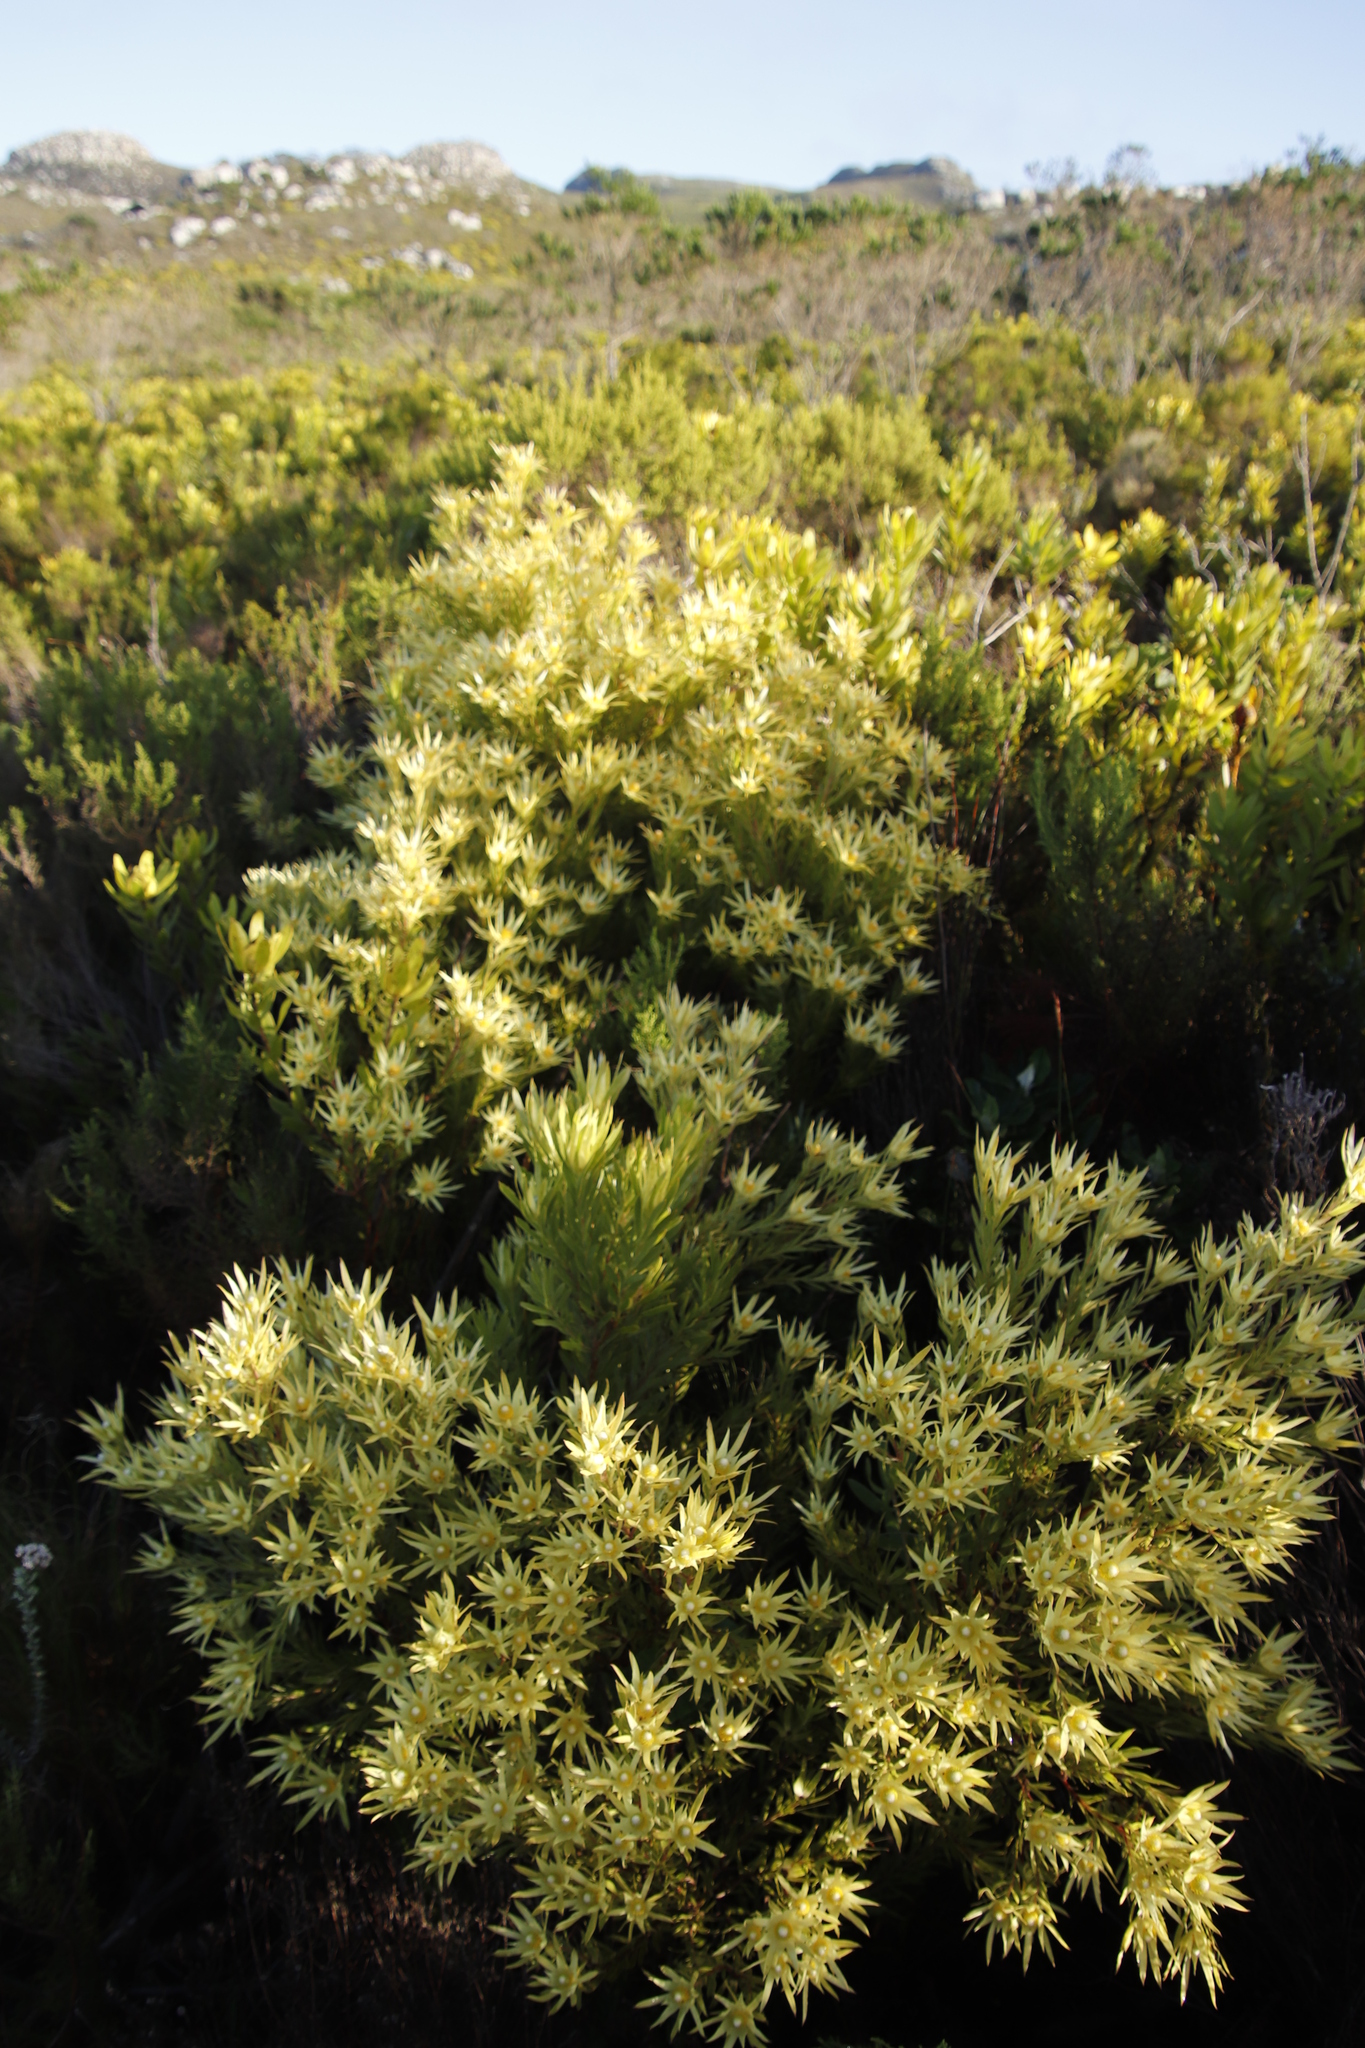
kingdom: Plantae
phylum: Tracheophyta
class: Magnoliopsida
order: Proteales
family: Proteaceae
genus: Leucadendron
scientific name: Leucadendron xanthoconus
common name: Sickle-leaf conebush
